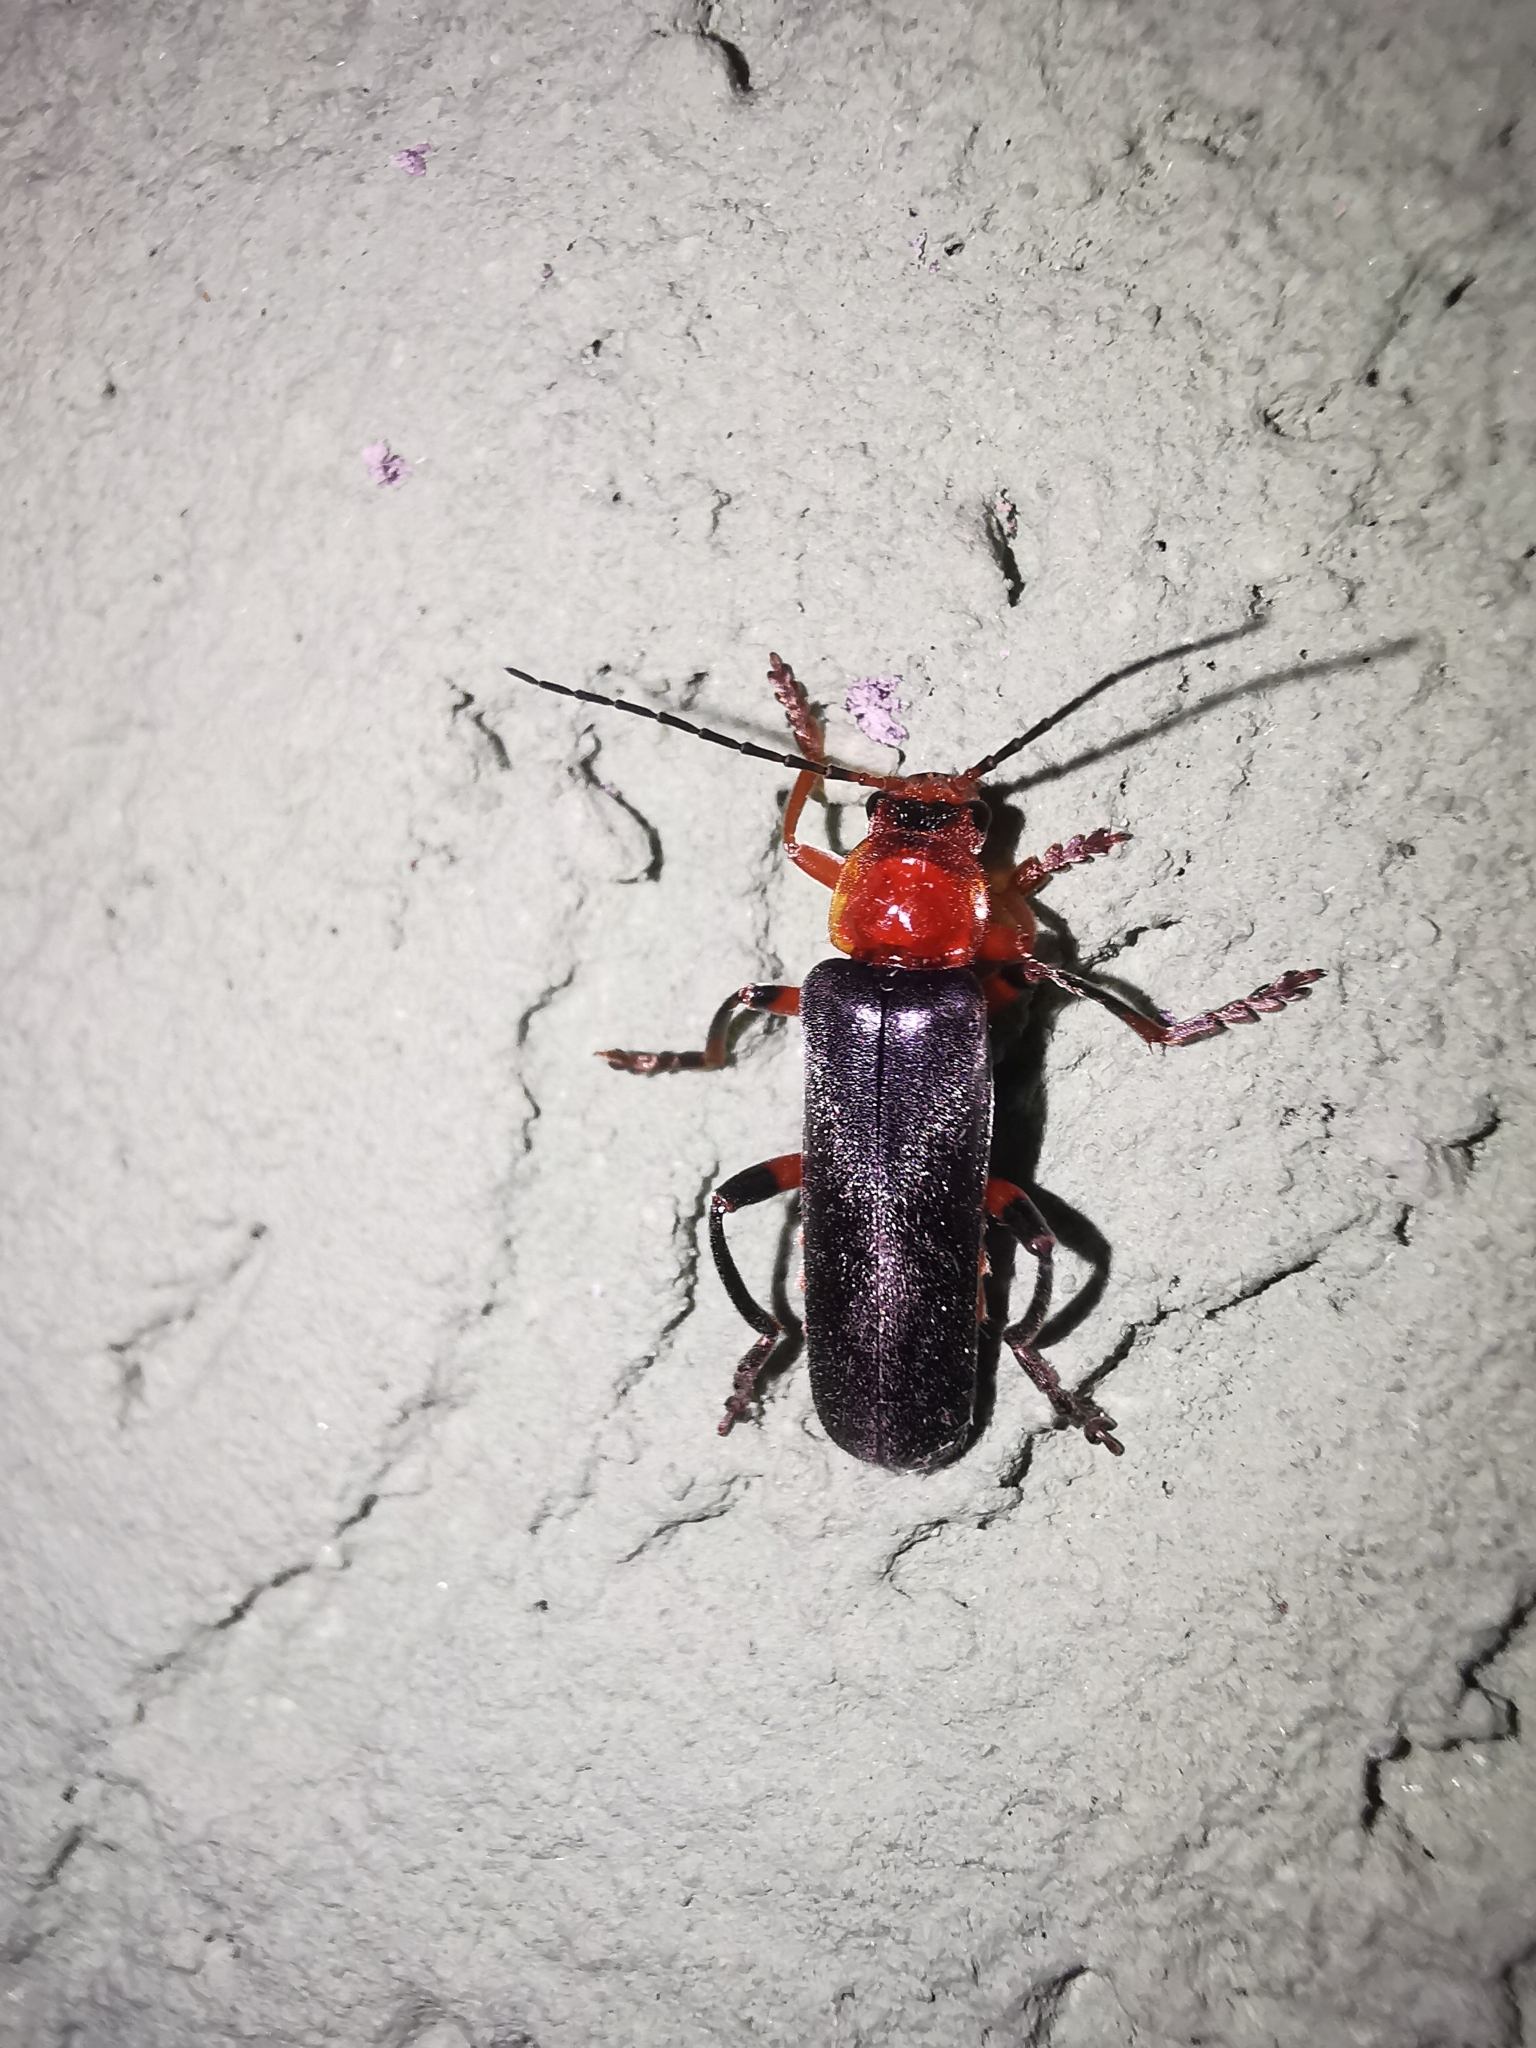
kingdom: Animalia
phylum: Arthropoda
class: Insecta
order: Coleoptera
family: Cantharidae
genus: Cantharis
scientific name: Cantharis livida
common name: Livid soldier beetle
